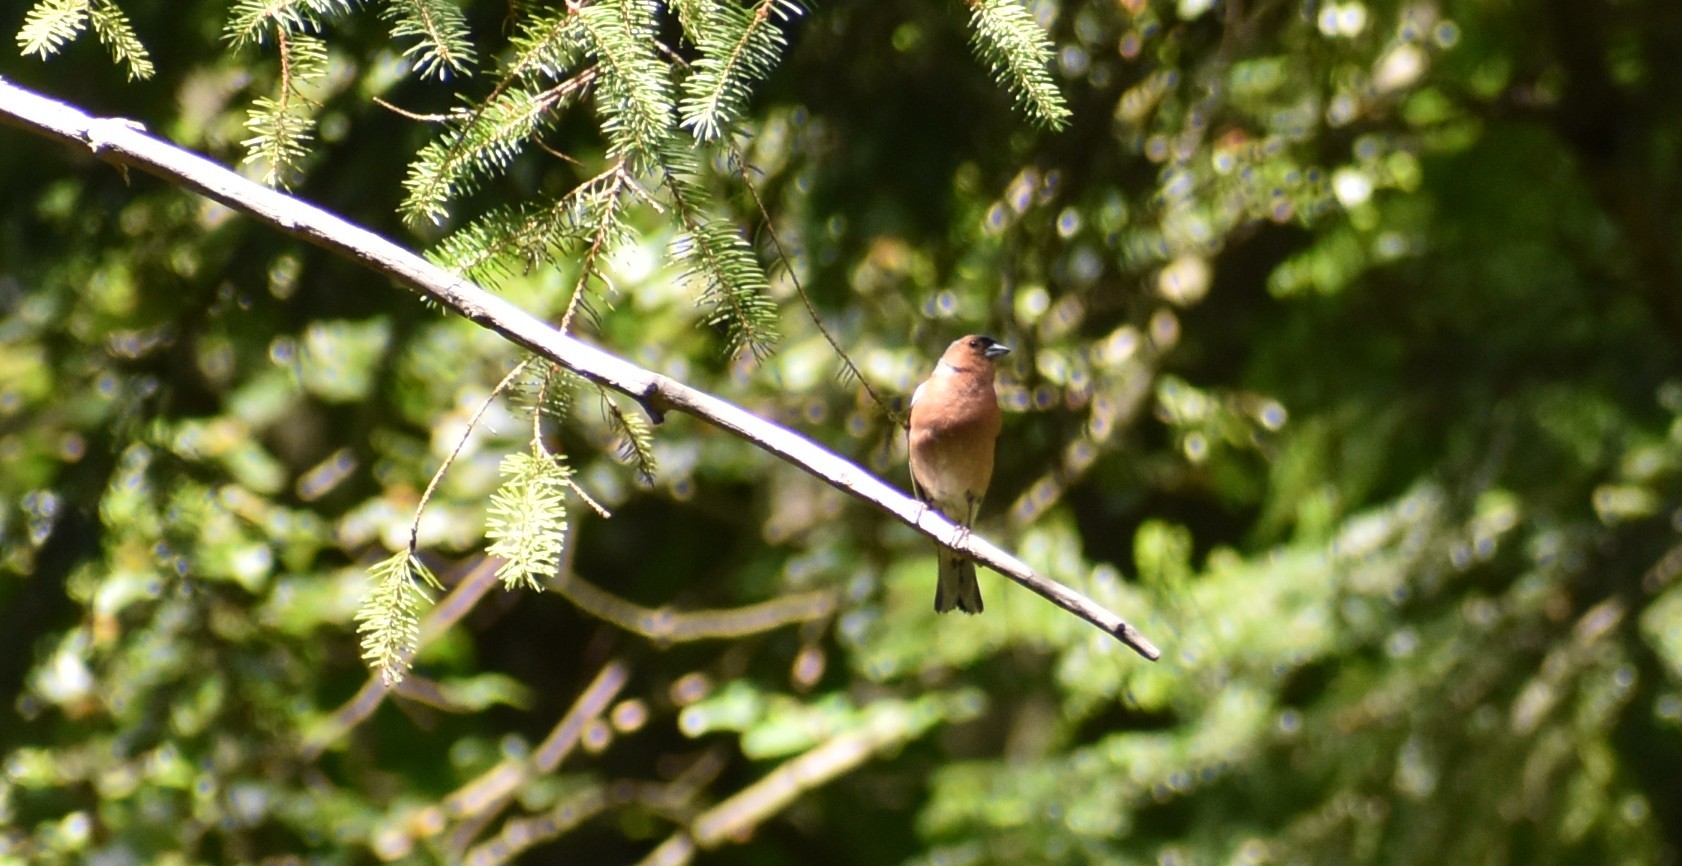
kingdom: Animalia
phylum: Chordata
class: Aves
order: Passeriformes
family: Fringillidae
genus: Fringilla
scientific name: Fringilla coelebs
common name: Common chaffinch
